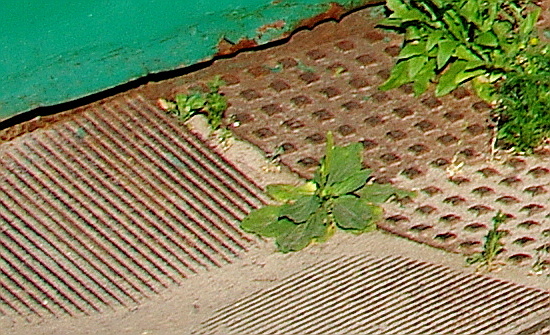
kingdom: Plantae
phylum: Tracheophyta
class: Magnoliopsida
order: Lamiales
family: Plantaginaceae
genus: Plantago
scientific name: Plantago major
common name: Common plantain
